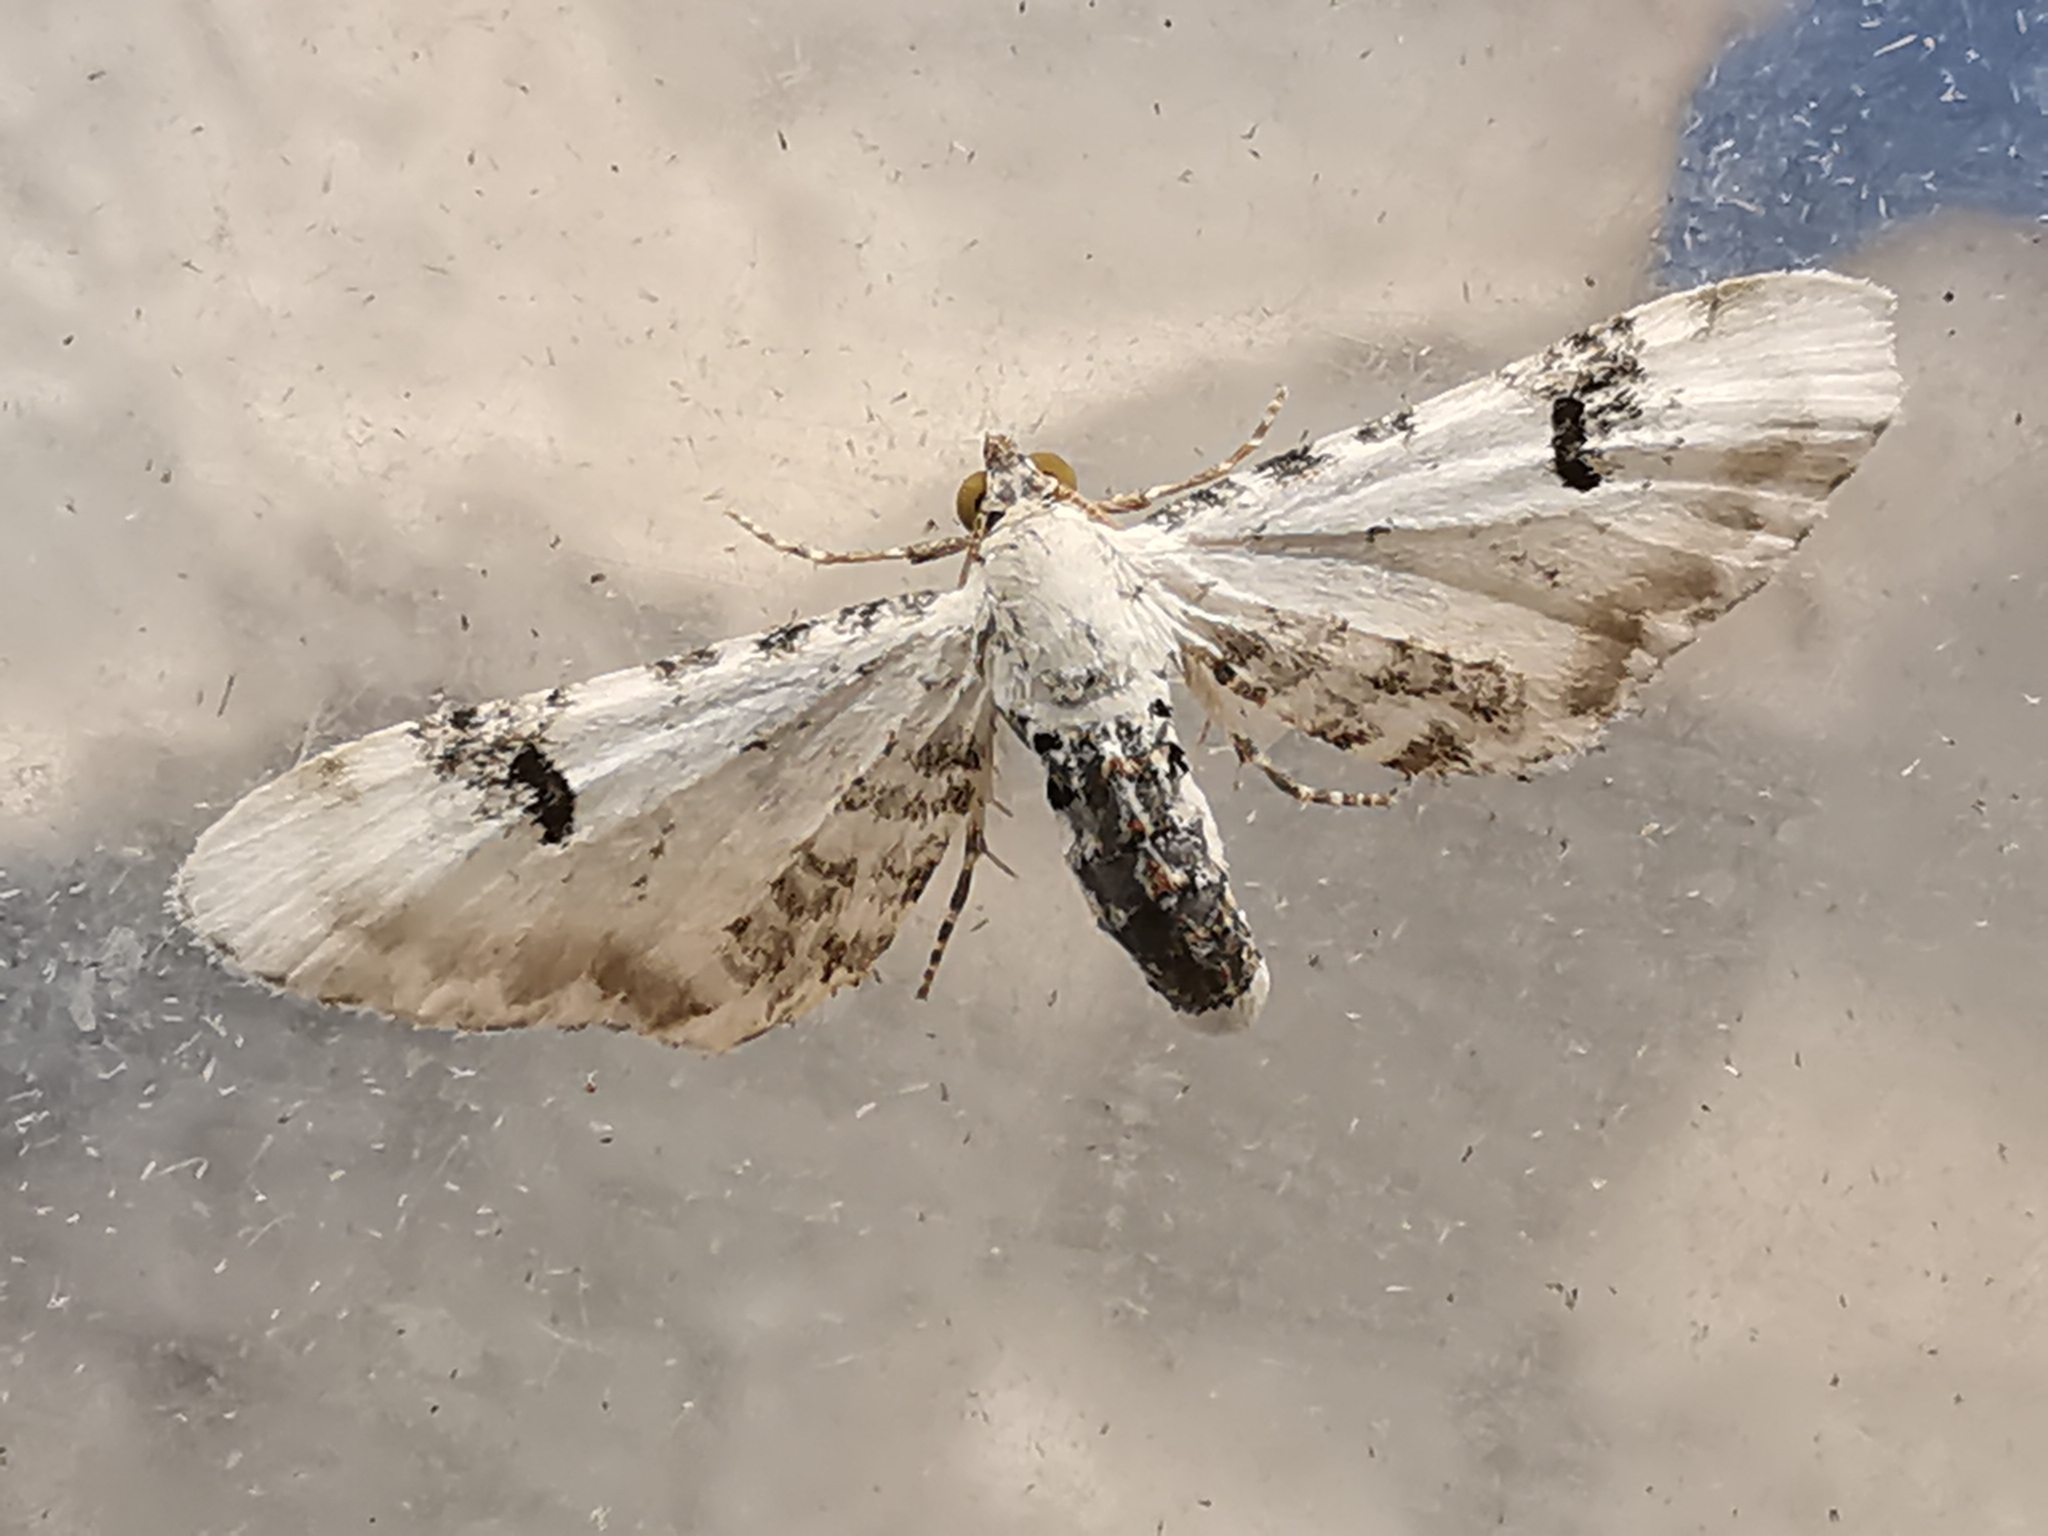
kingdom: Animalia
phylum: Arthropoda
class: Insecta
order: Lepidoptera
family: Geometridae
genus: Eupithecia
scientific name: Eupithecia centaureata
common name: Lime-speck pug
